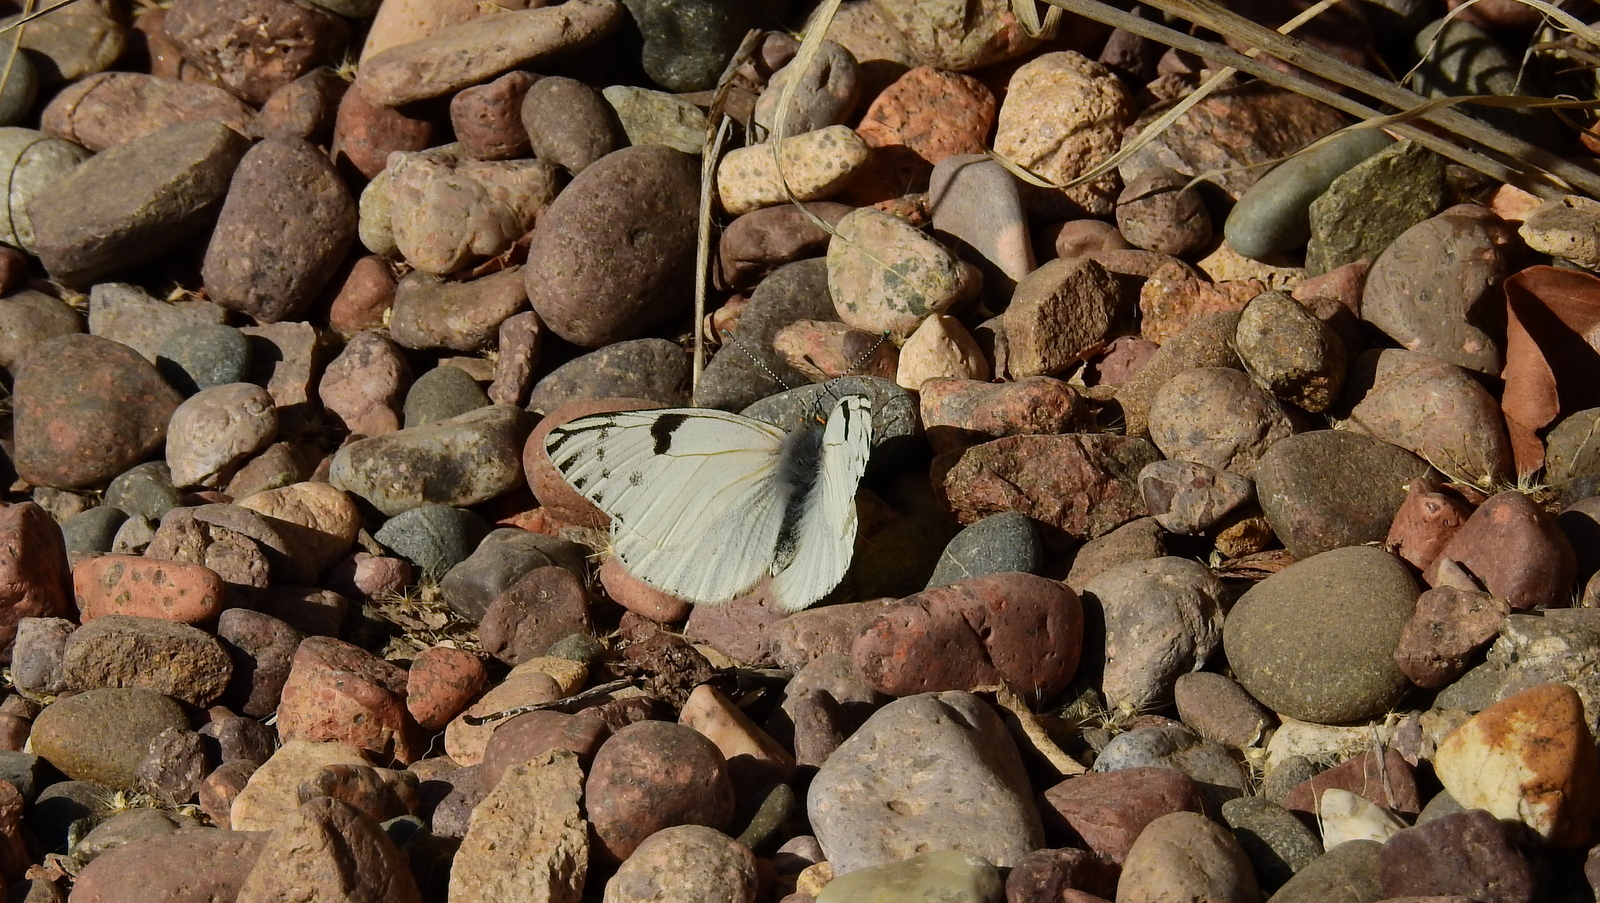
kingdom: Animalia
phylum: Arthropoda
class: Insecta
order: Lepidoptera
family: Pieridae
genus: Tatochila
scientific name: Tatochila autodice
